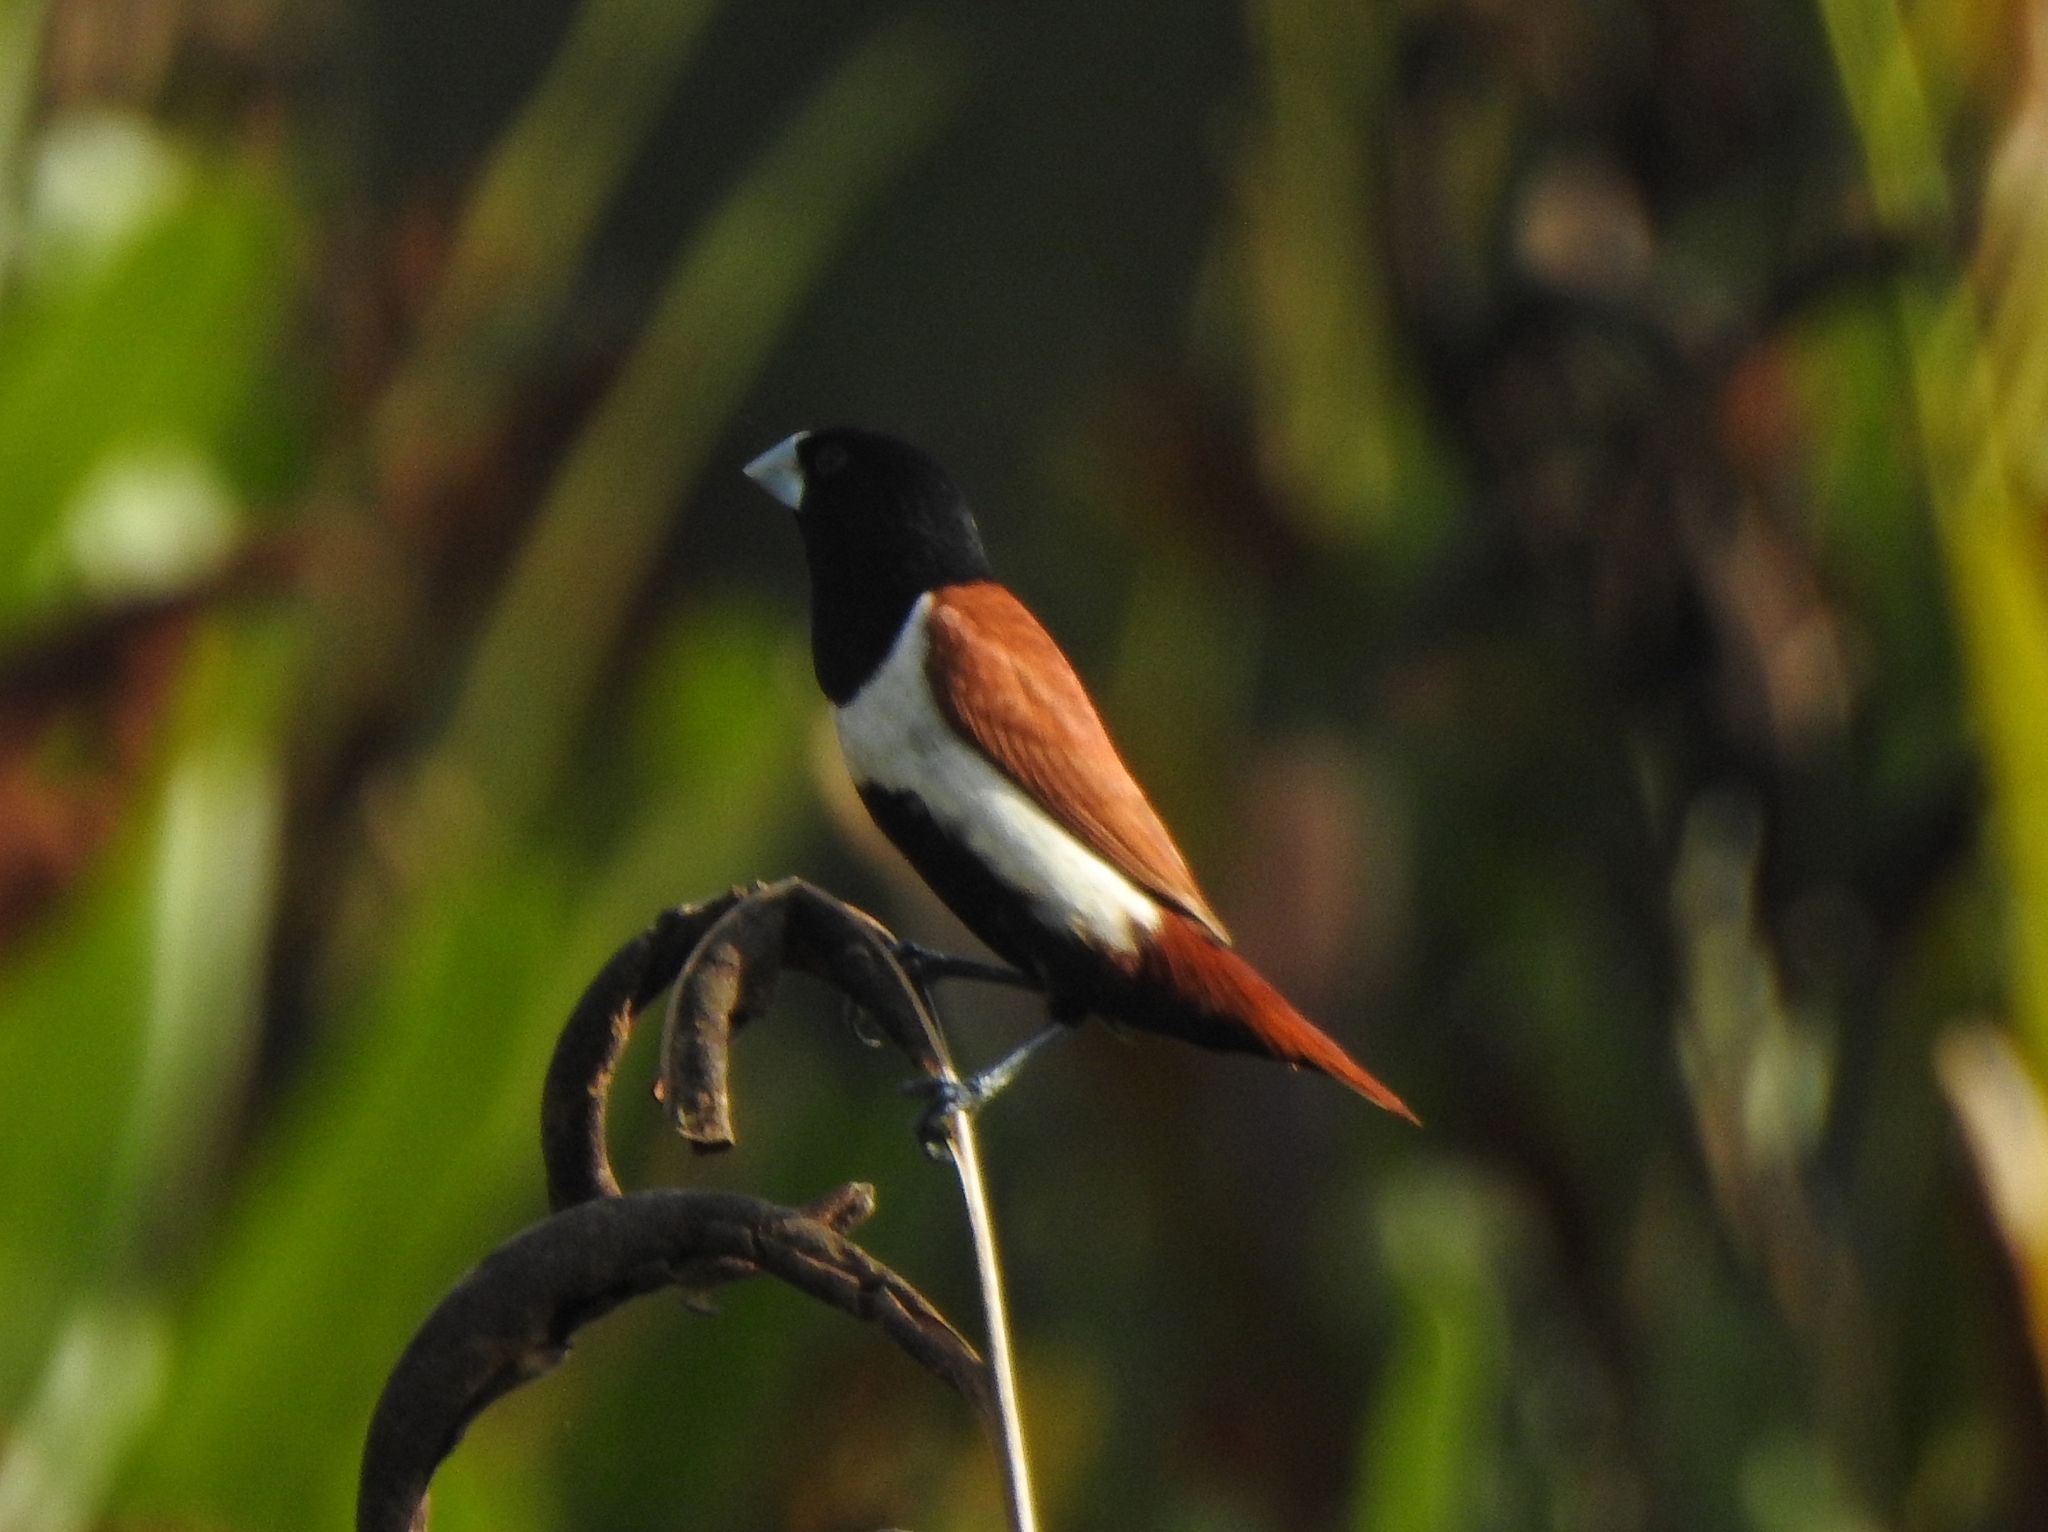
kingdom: Animalia
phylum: Chordata
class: Aves
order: Passeriformes
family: Estrildidae
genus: Lonchura
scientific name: Lonchura malacca
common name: Tricolored munia
